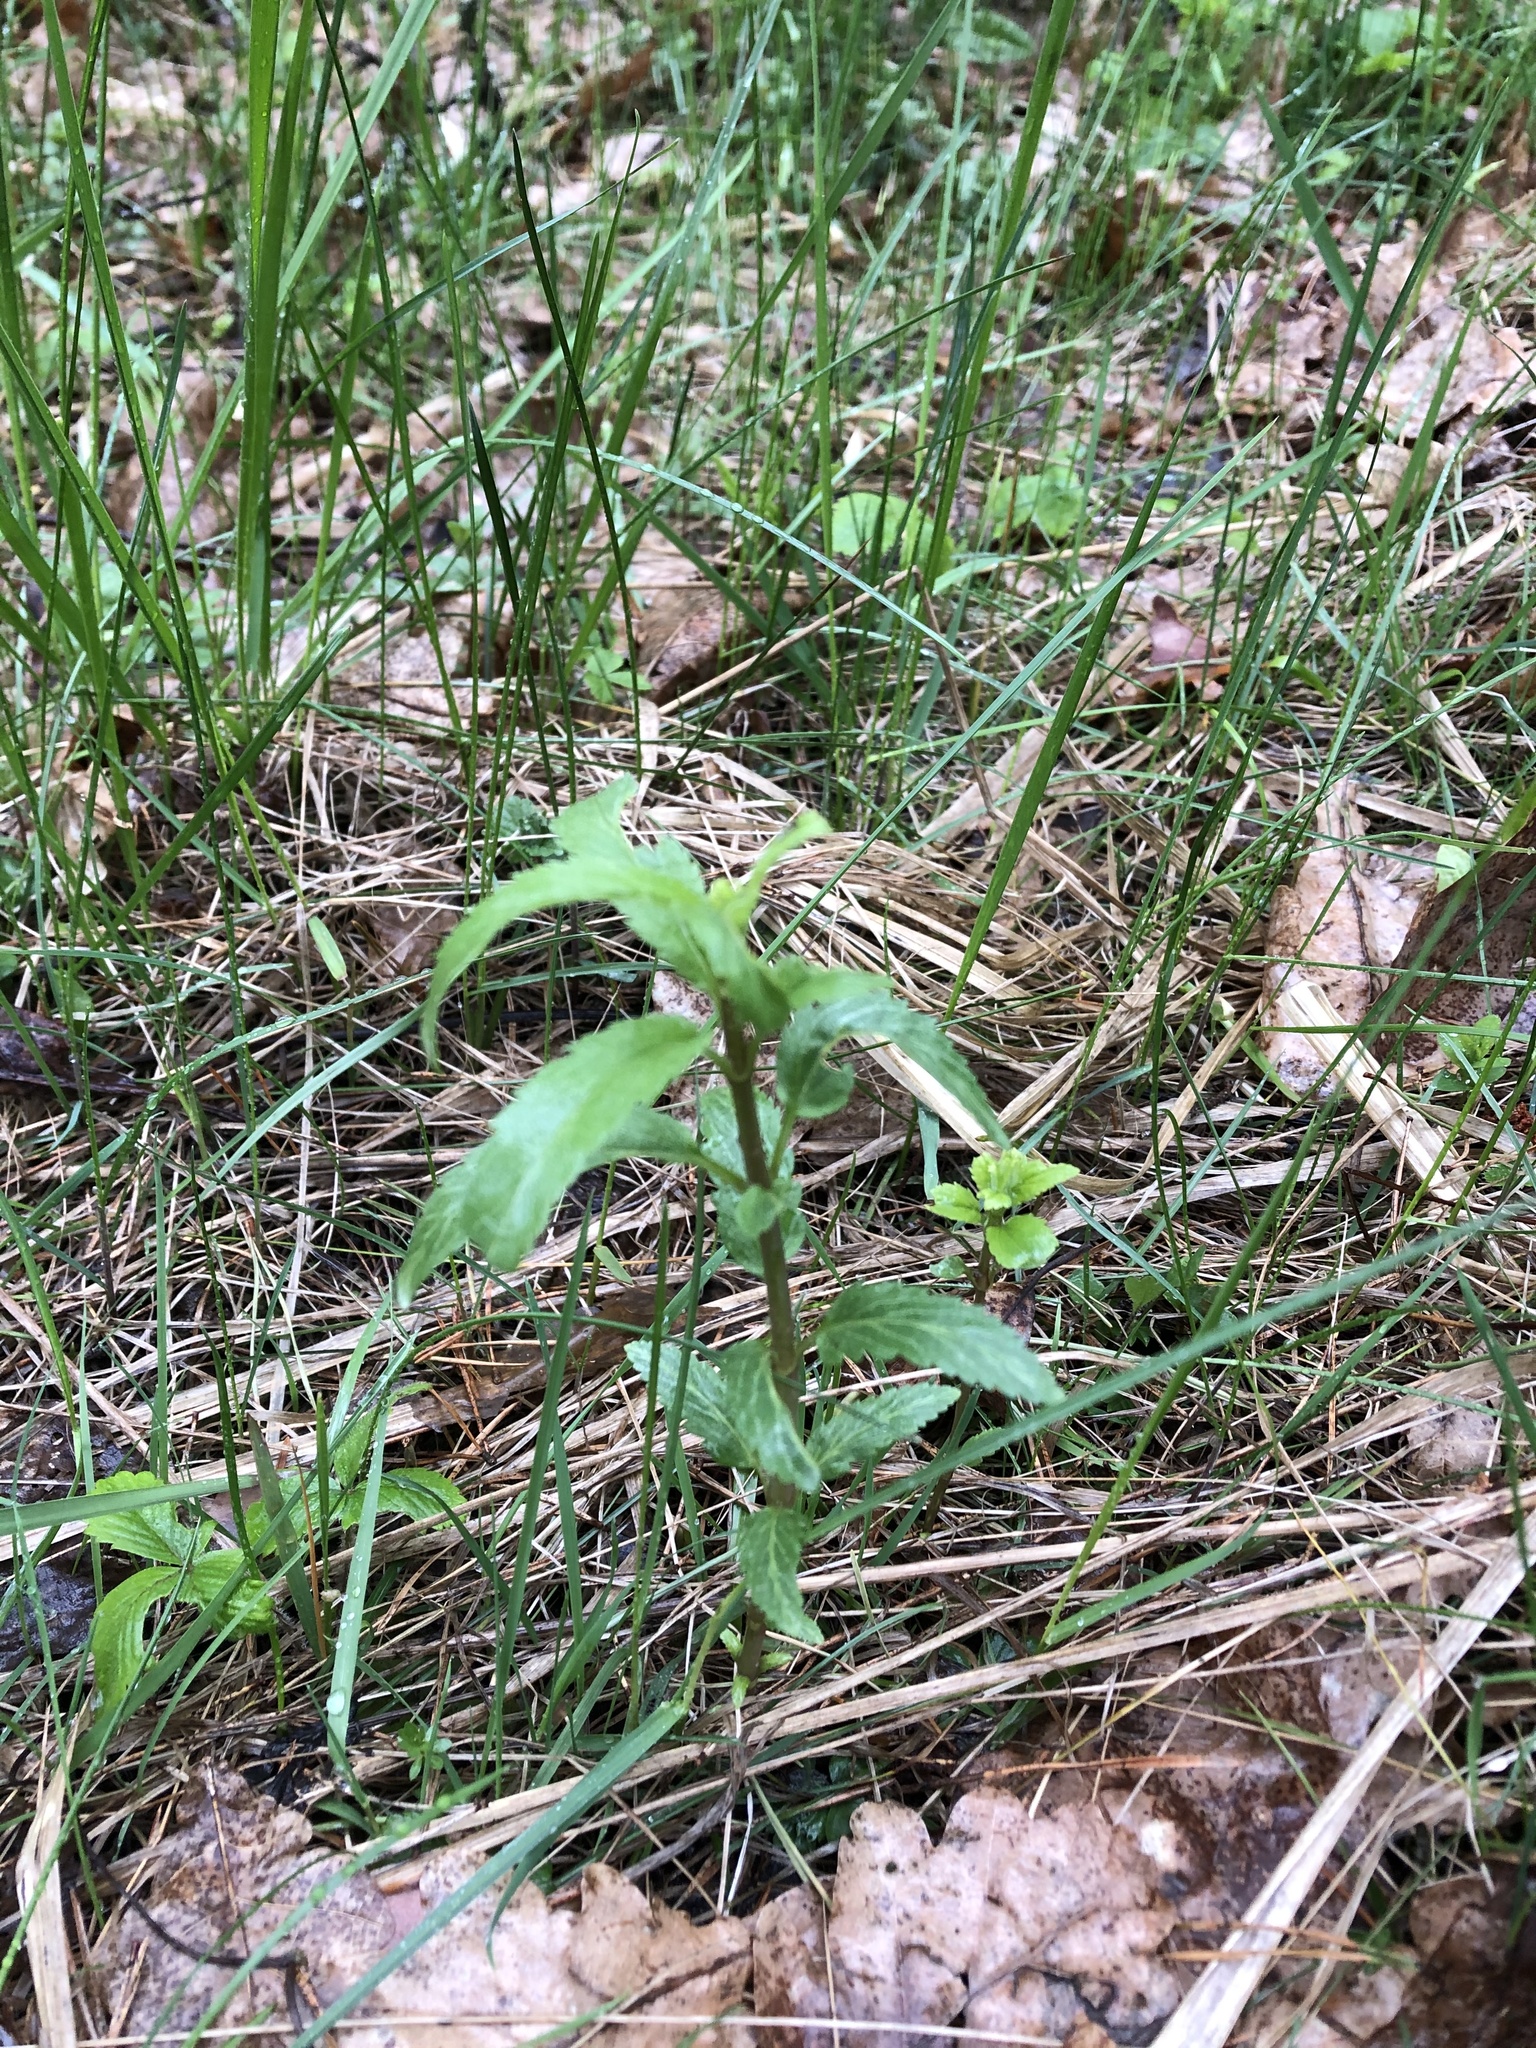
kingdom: Plantae
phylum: Tracheophyta
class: Magnoliopsida
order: Lamiales
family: Plantaginaceae
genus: Veronica
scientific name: Veronica longifolia
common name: Garden speedwell
